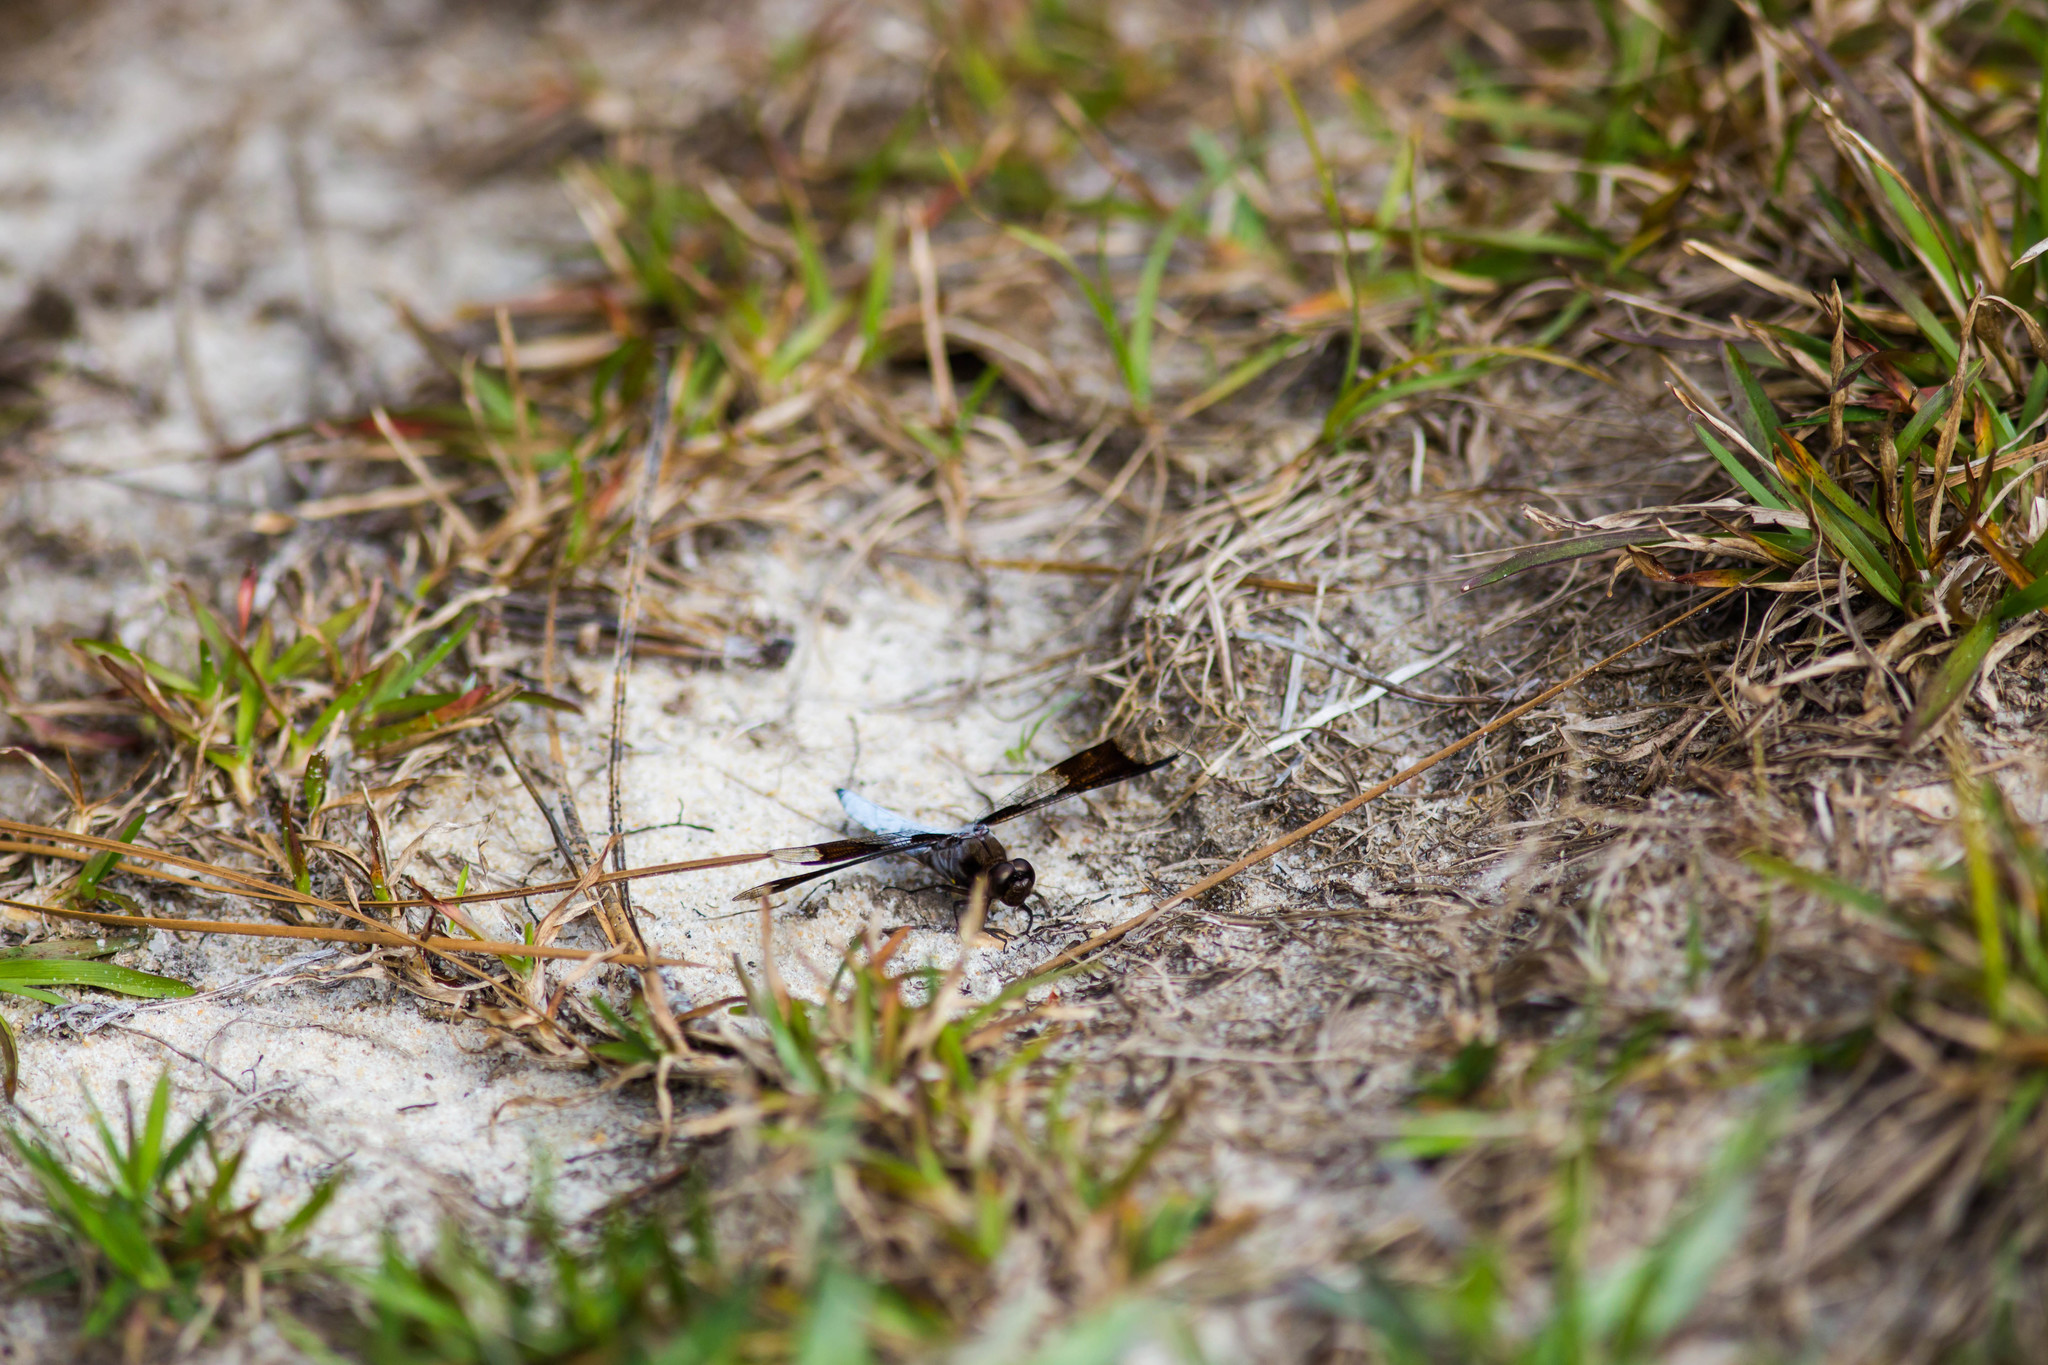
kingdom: Animalia
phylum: Arthropoda
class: Insecta
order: Odonata
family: Libellulidae
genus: Plathemis
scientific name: Plathemis lydia
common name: Common whitetail
